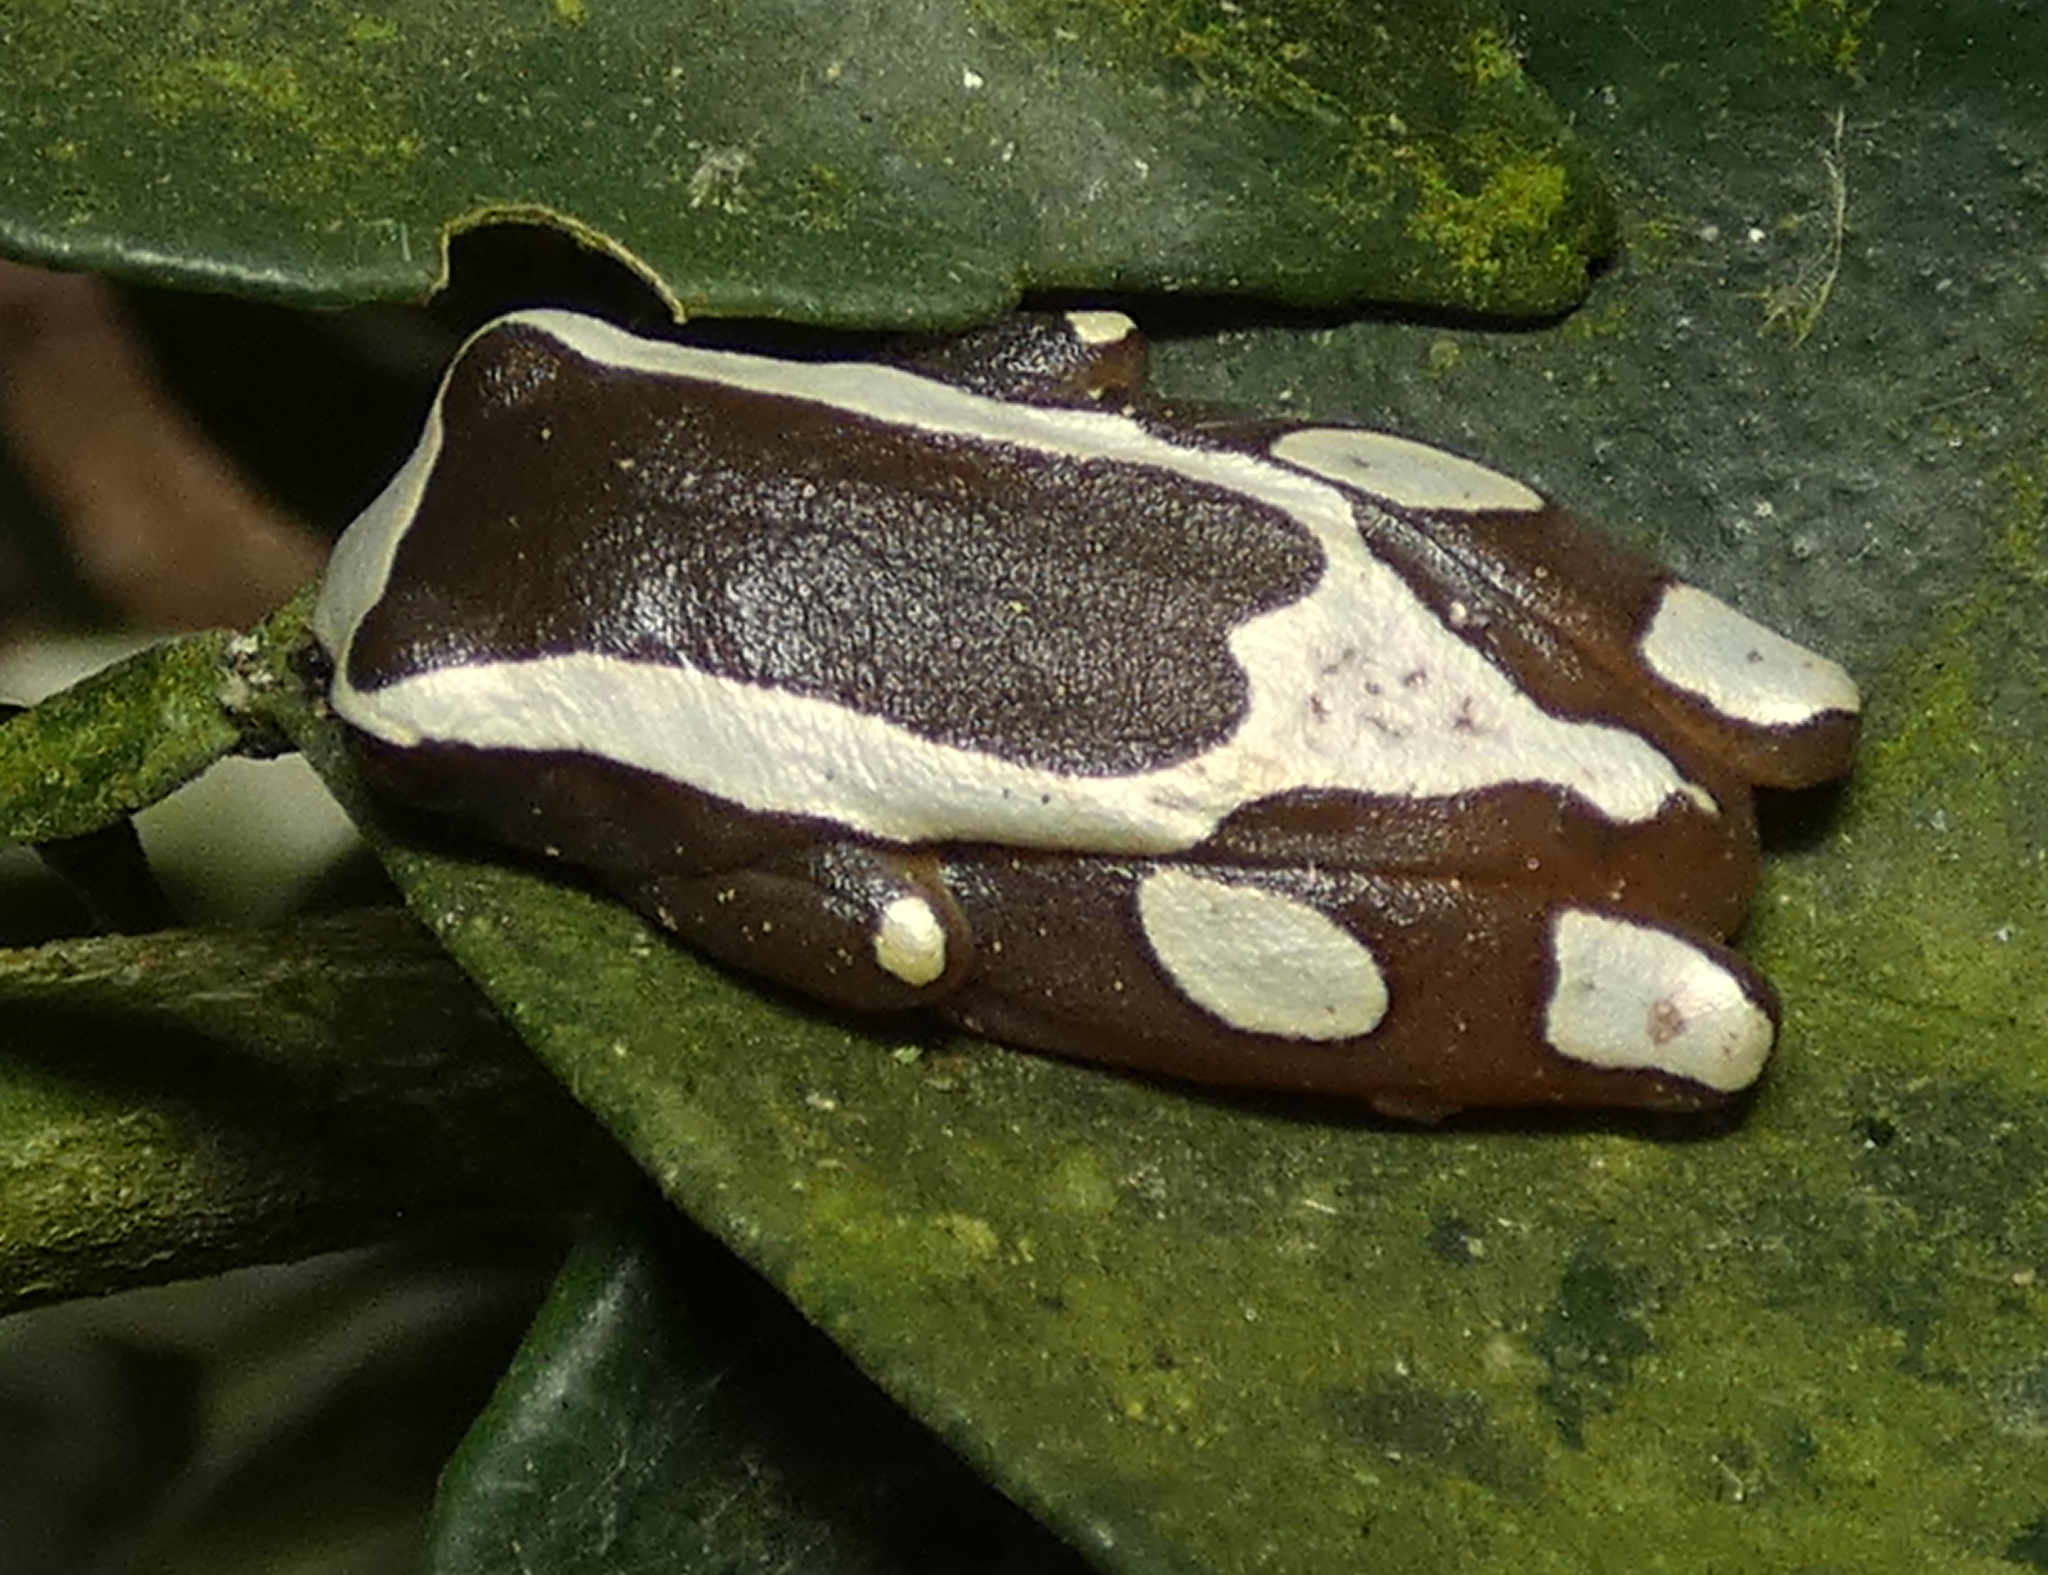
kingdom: Animalia
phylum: Chordata
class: Amphibia
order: Anura
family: Hylidae
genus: Dendropsophus
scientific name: Dendropsophus elegans
